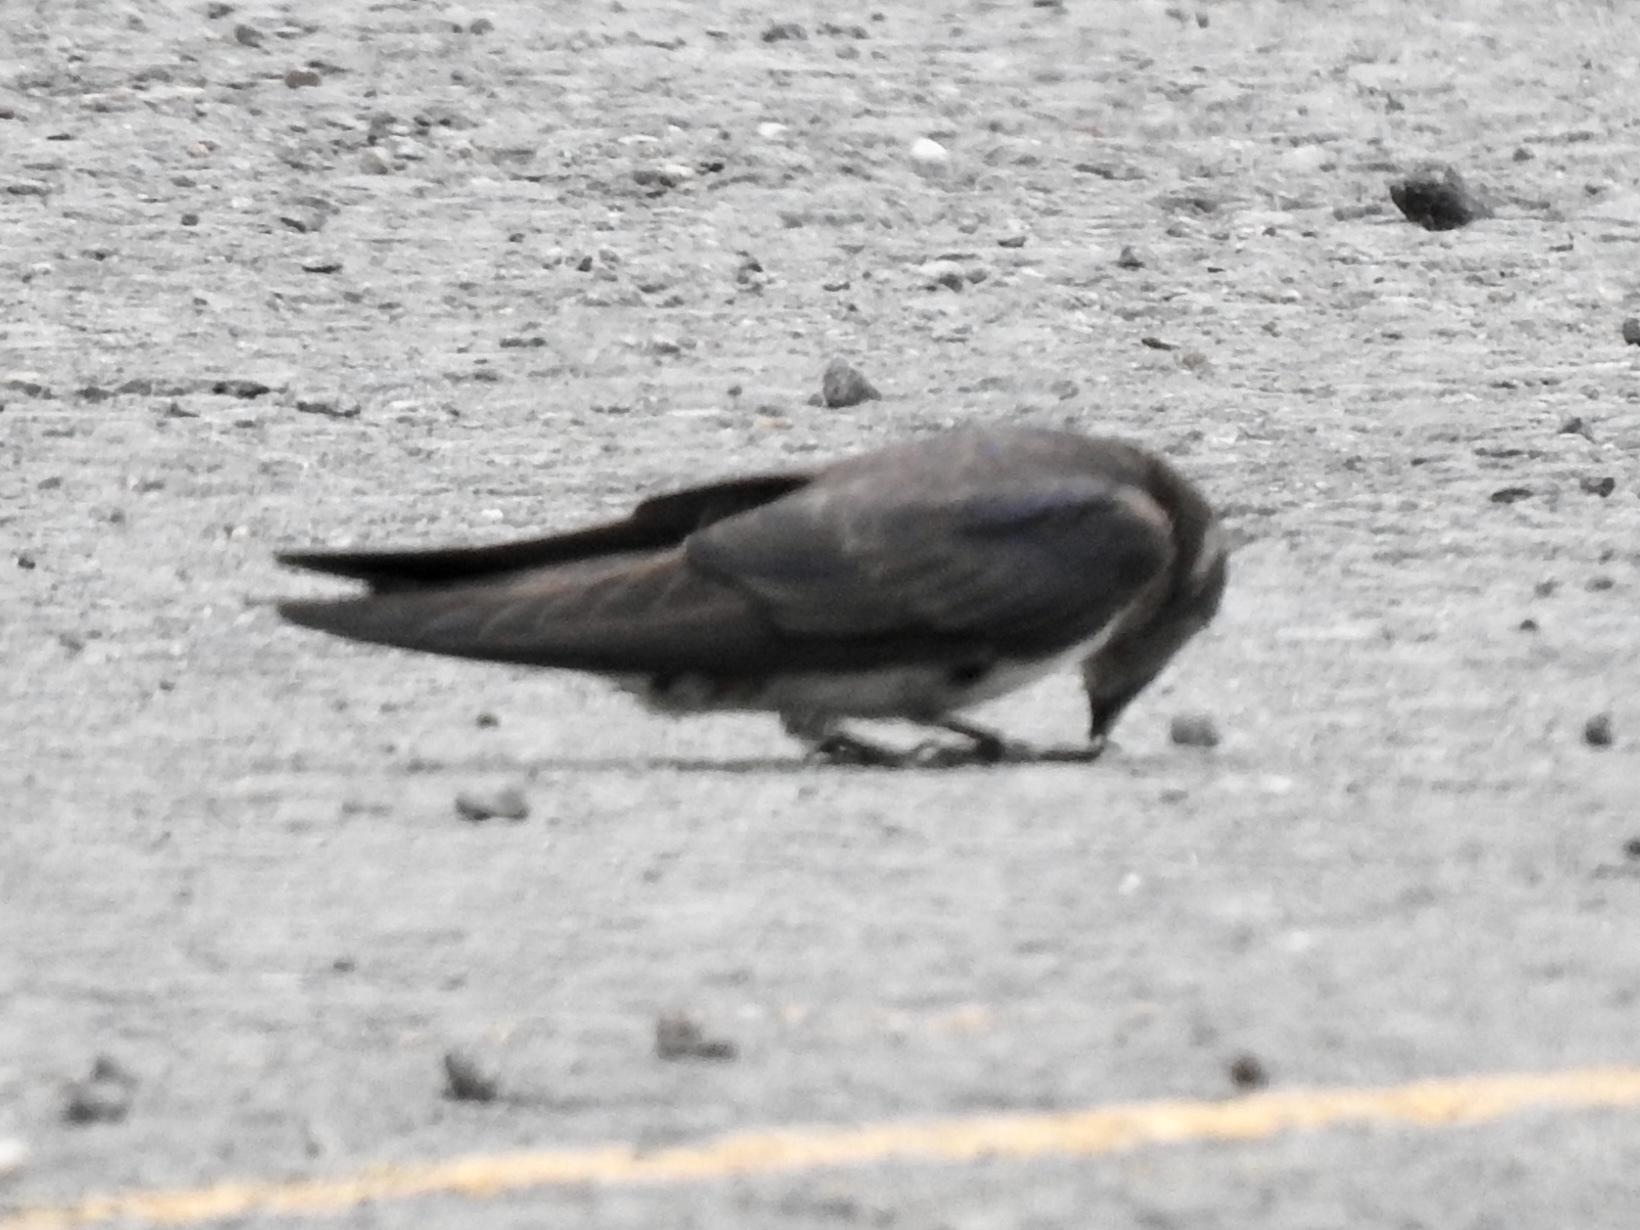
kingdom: Animalia
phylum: Chordata
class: Aves
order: Passeriformes
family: Hirundinidae
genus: Progne
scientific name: Progne subis
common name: Purple martin
